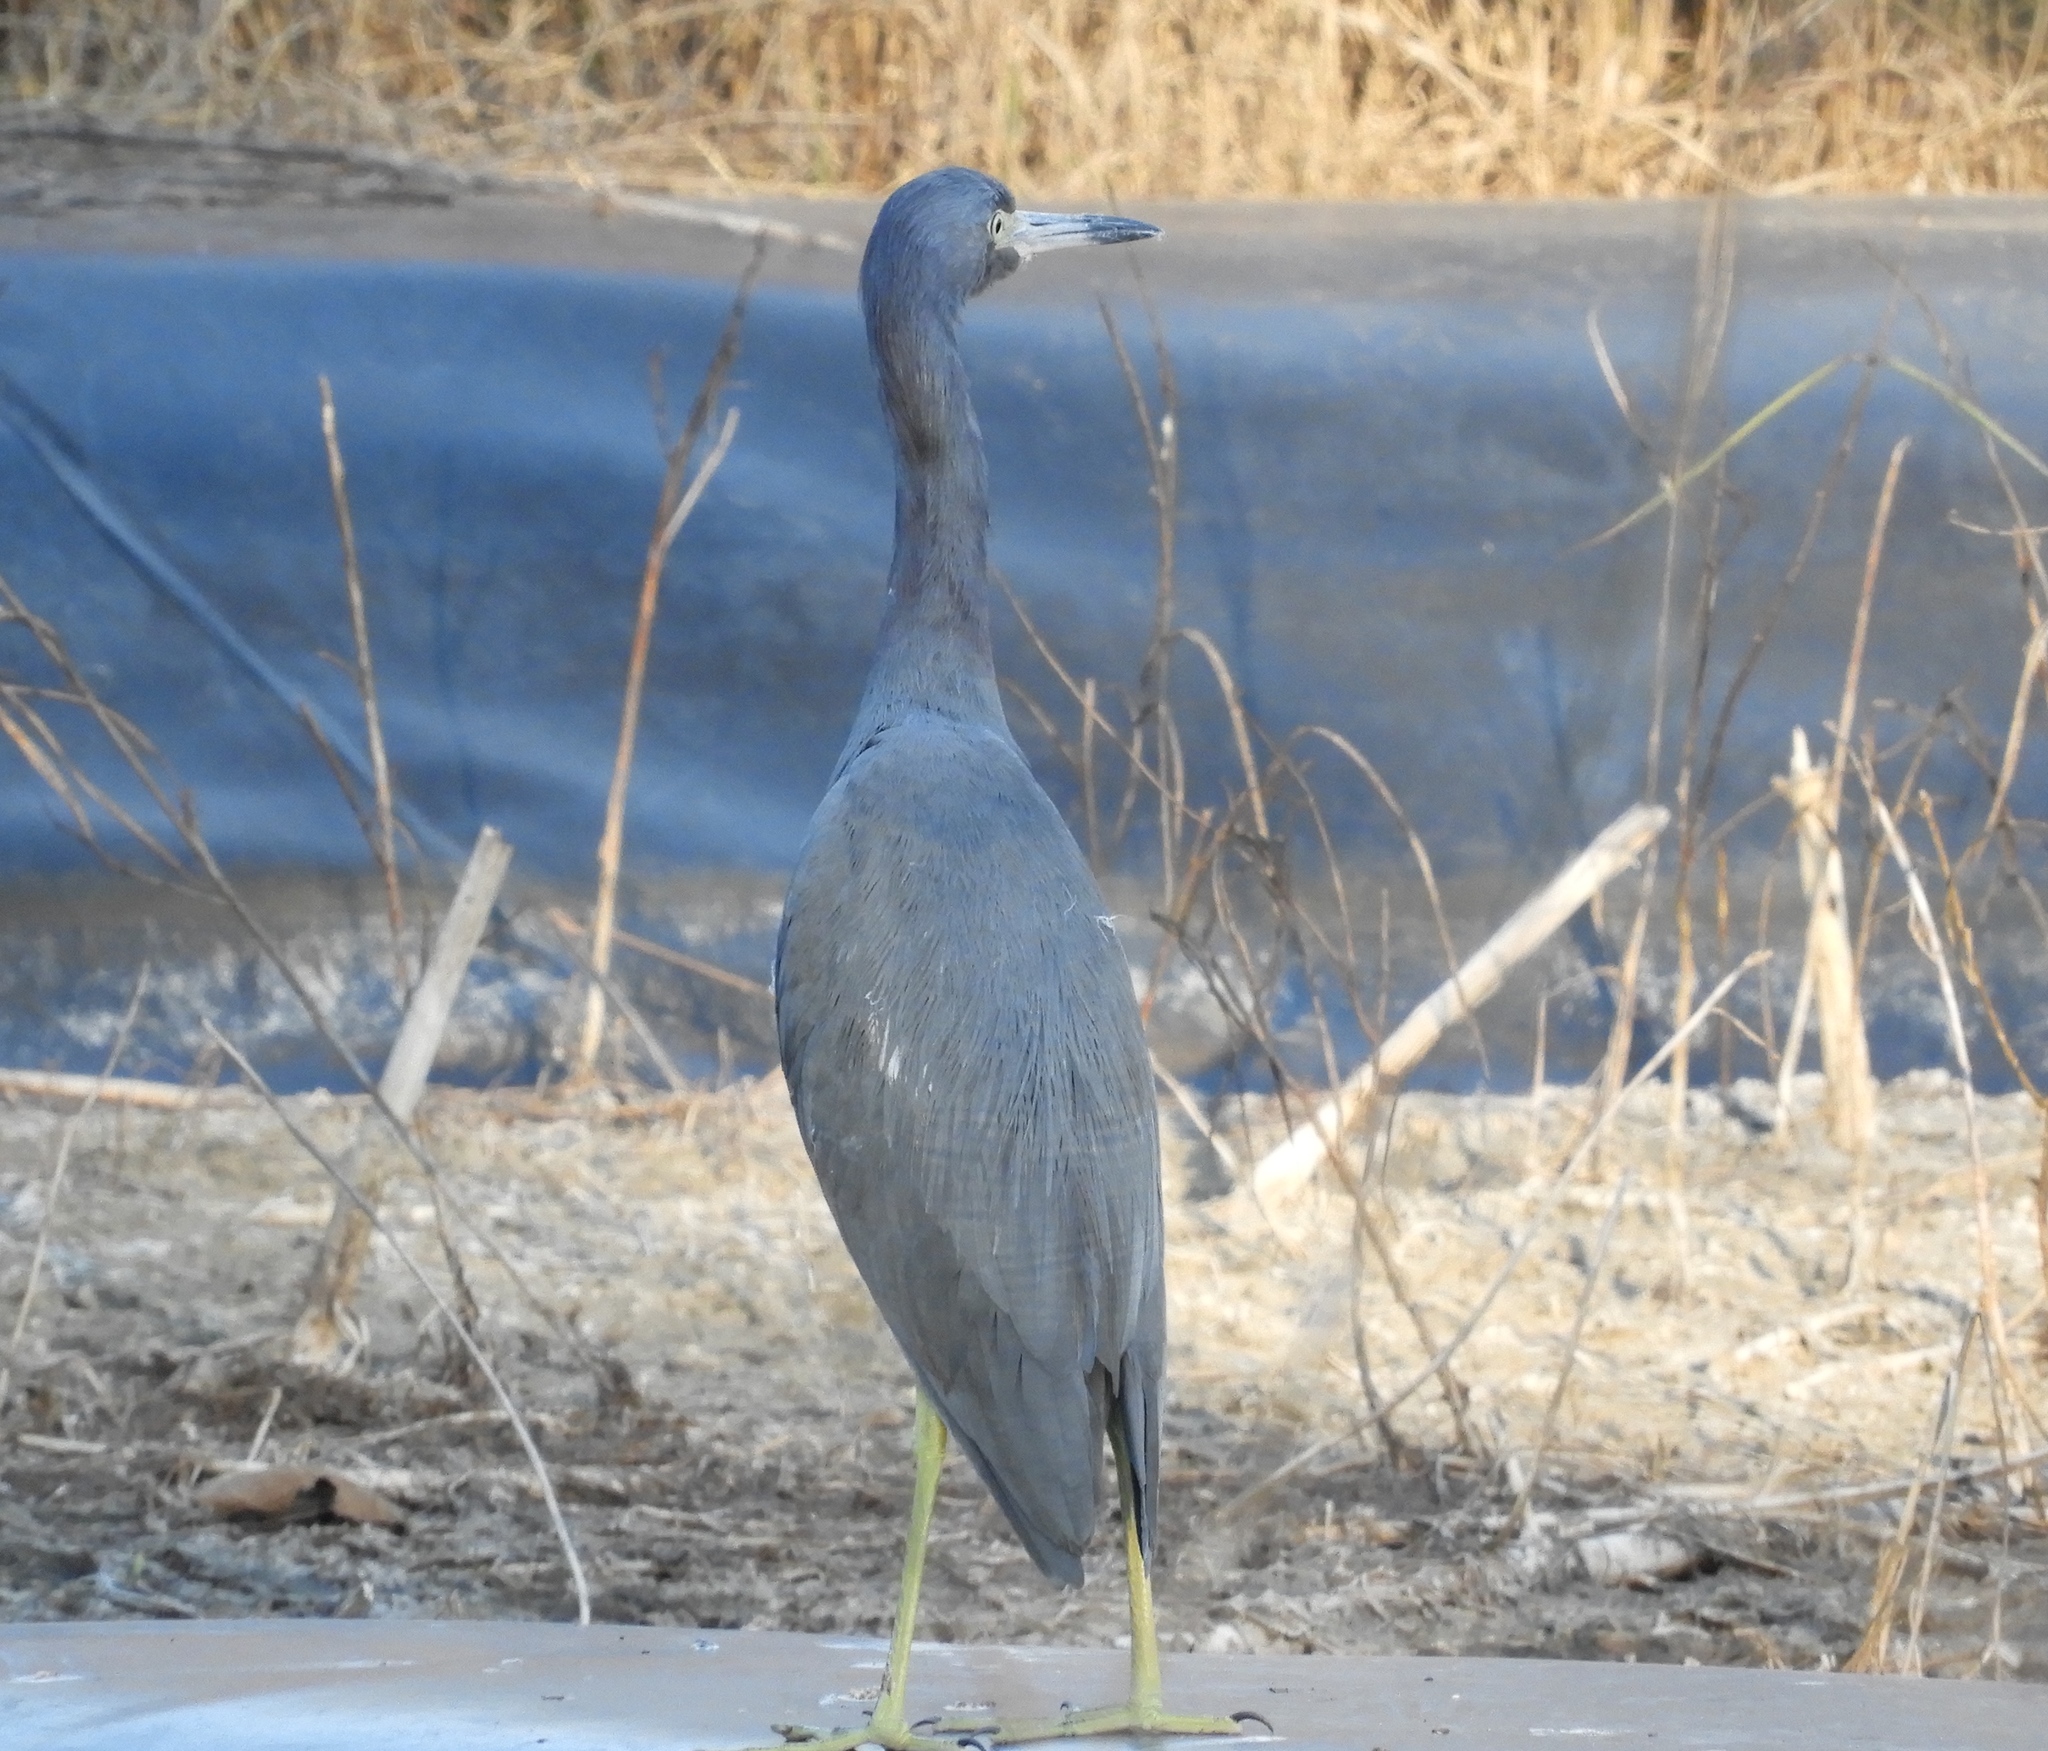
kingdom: Animalia
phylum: Chordata
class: Aves
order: Pelecaniformes
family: Ardeidae
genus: Egretta
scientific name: Egretta caerulea
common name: Little blue heron
